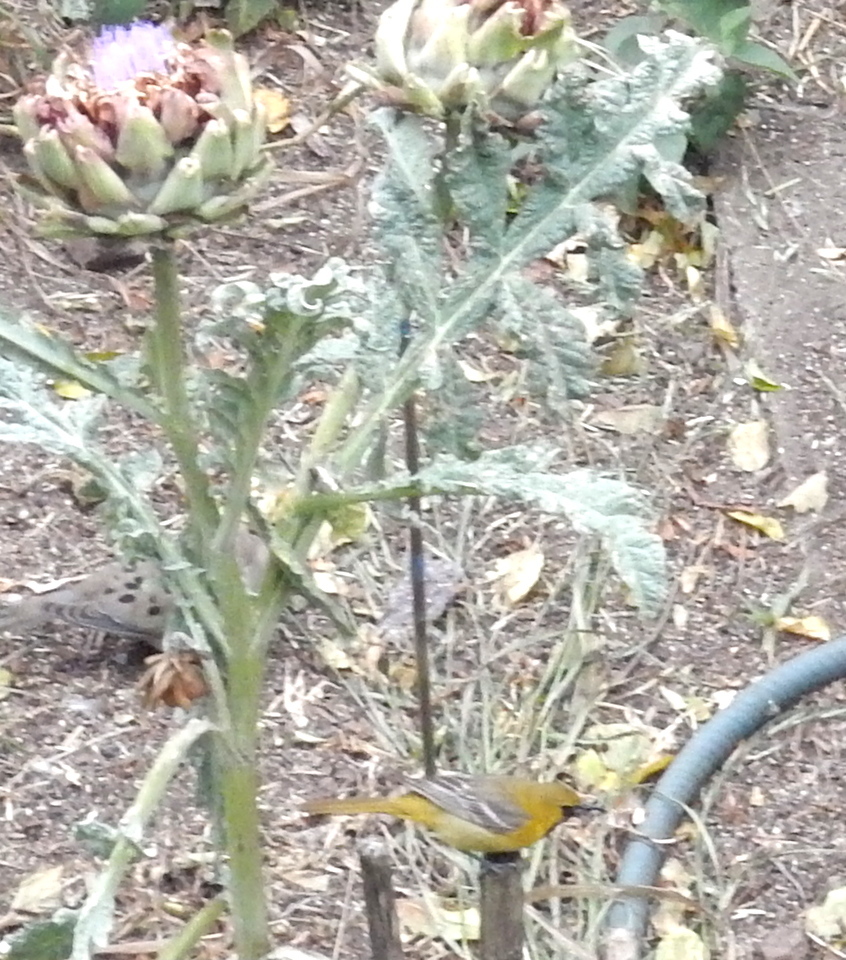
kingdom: Animalia
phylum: Chordata
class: Aves
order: Passeriformes
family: Icteridae
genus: Icterus
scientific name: Icterus cucullatus
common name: Hooded oriole
